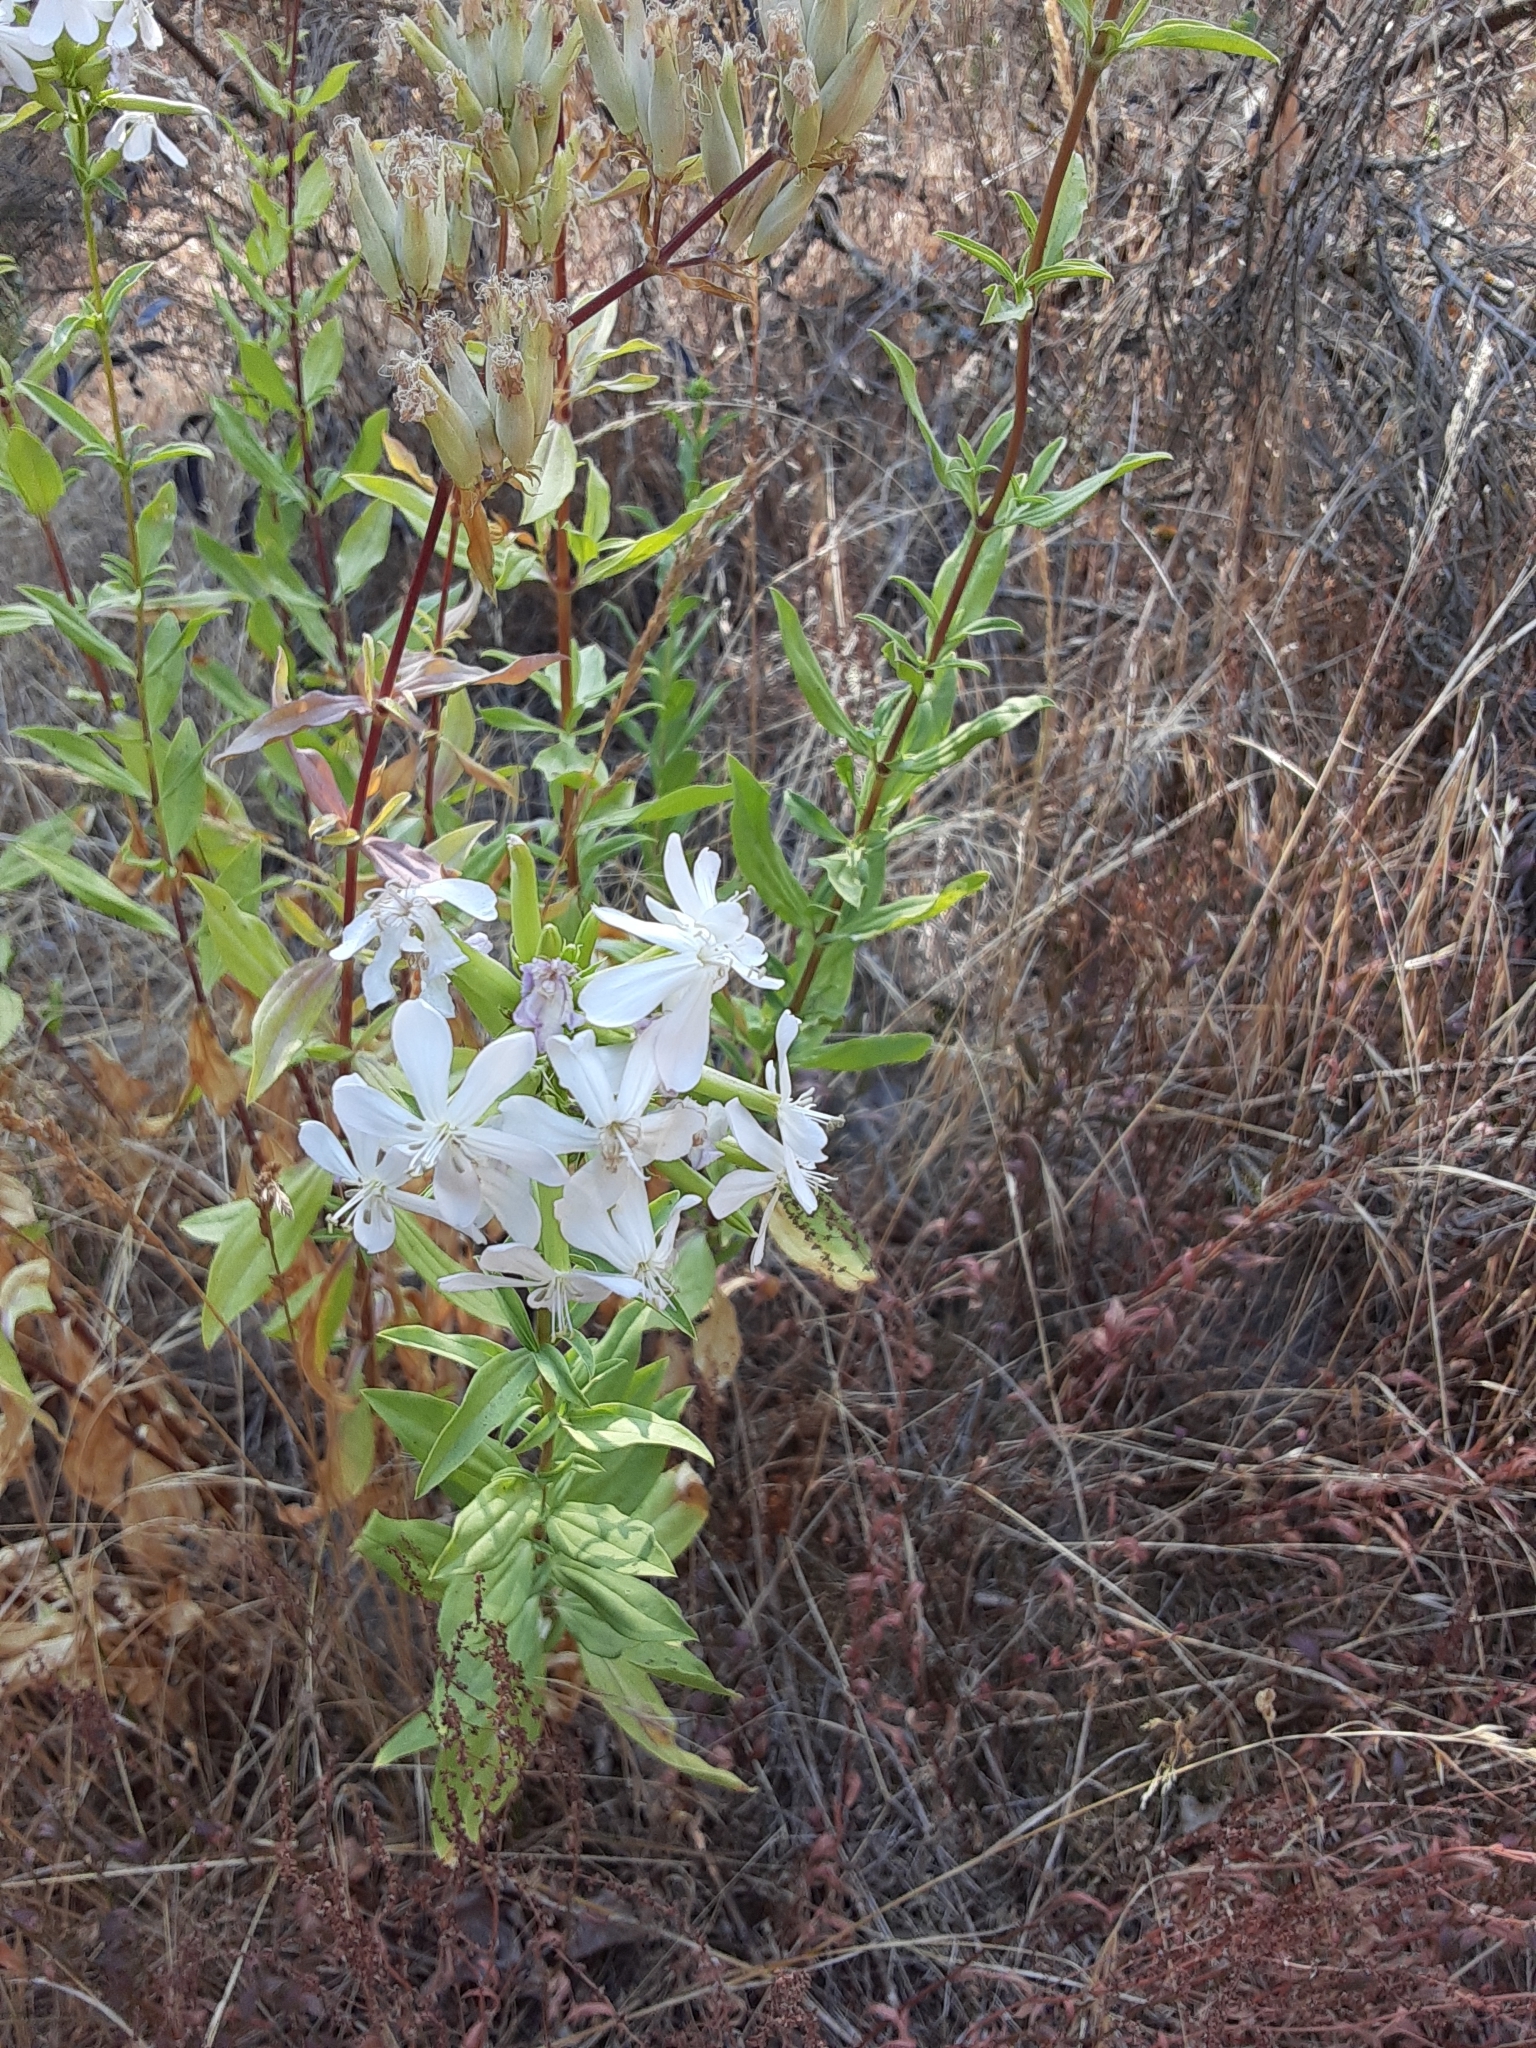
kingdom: Plantae
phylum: Tracheophyta
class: Magnoliopsida
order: Caryophyllales
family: Caryophyllaceae
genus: Saponaria
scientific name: Saponaria officinalis
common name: Soapwort
